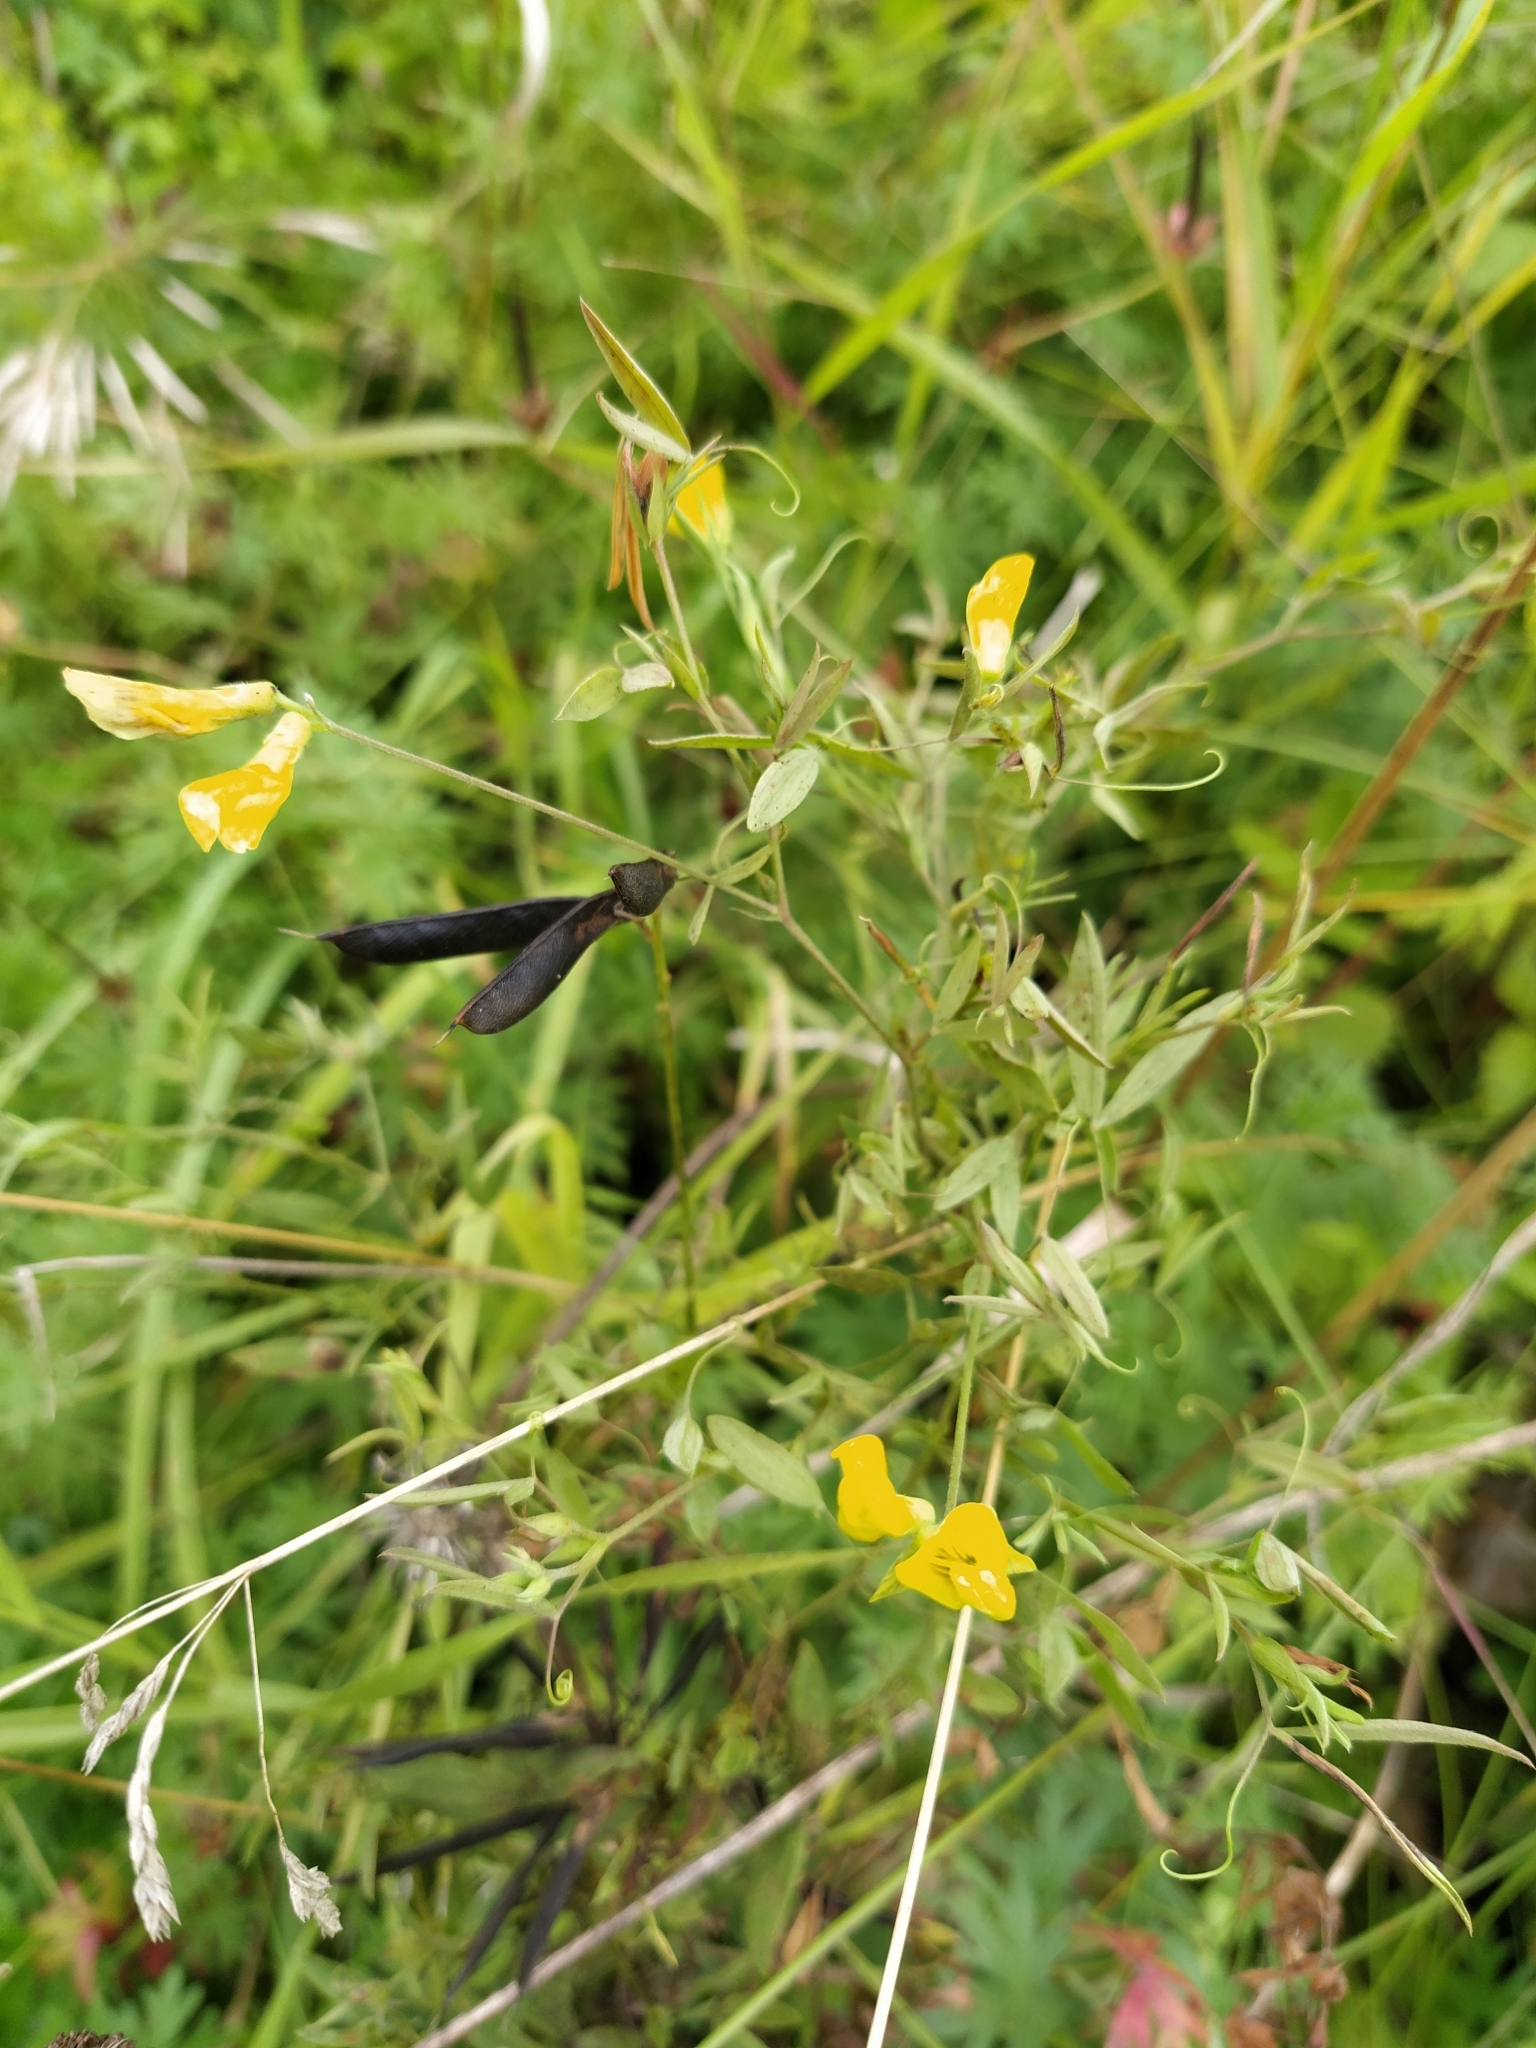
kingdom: Plantae
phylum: Tracheophyta
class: Magnoliopsida
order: Fabales
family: Fabaceae
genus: Lathyrus
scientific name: Lathyrus pratensis
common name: Meadow vetchling
